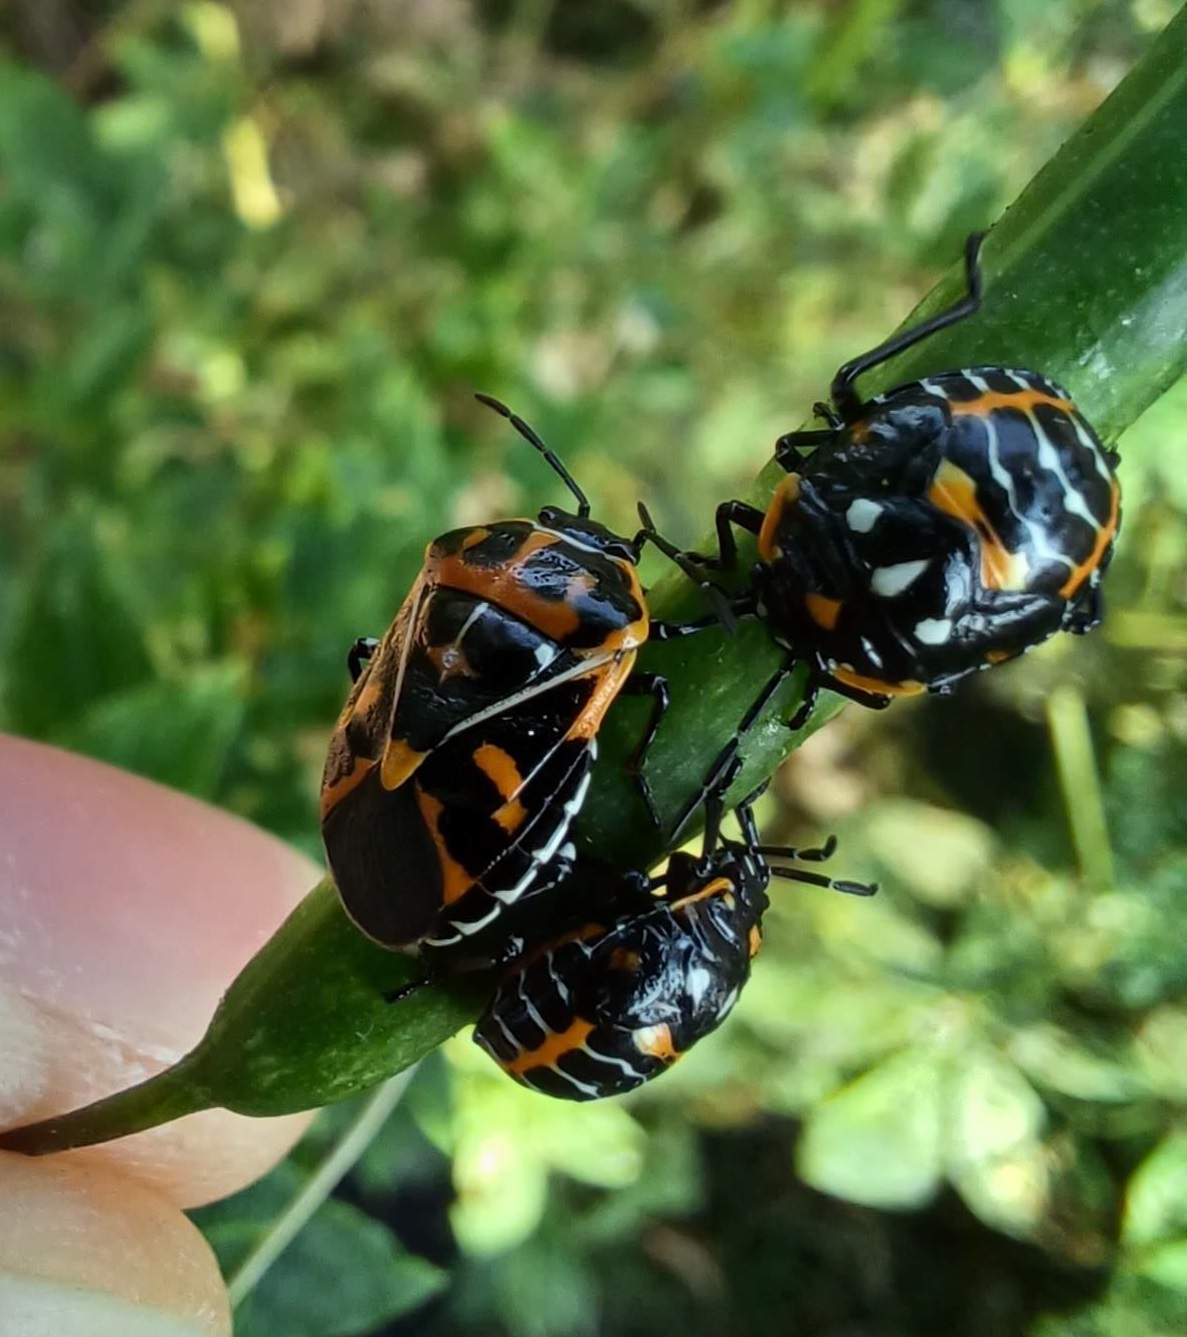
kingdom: Animalia
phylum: Arthropoda
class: Insecta
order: Hemiptera
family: Pentatomidae
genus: Murgantia
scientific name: Murgantia histrionica
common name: Harlequin bug
